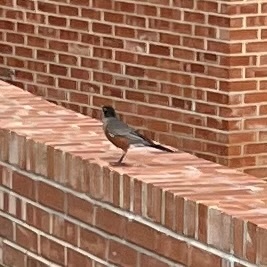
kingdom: Animalia
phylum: Chordata
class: Aves
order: Passeriformes
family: Turdidae
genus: Turdus
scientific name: Turdus migratorius
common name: American robin
